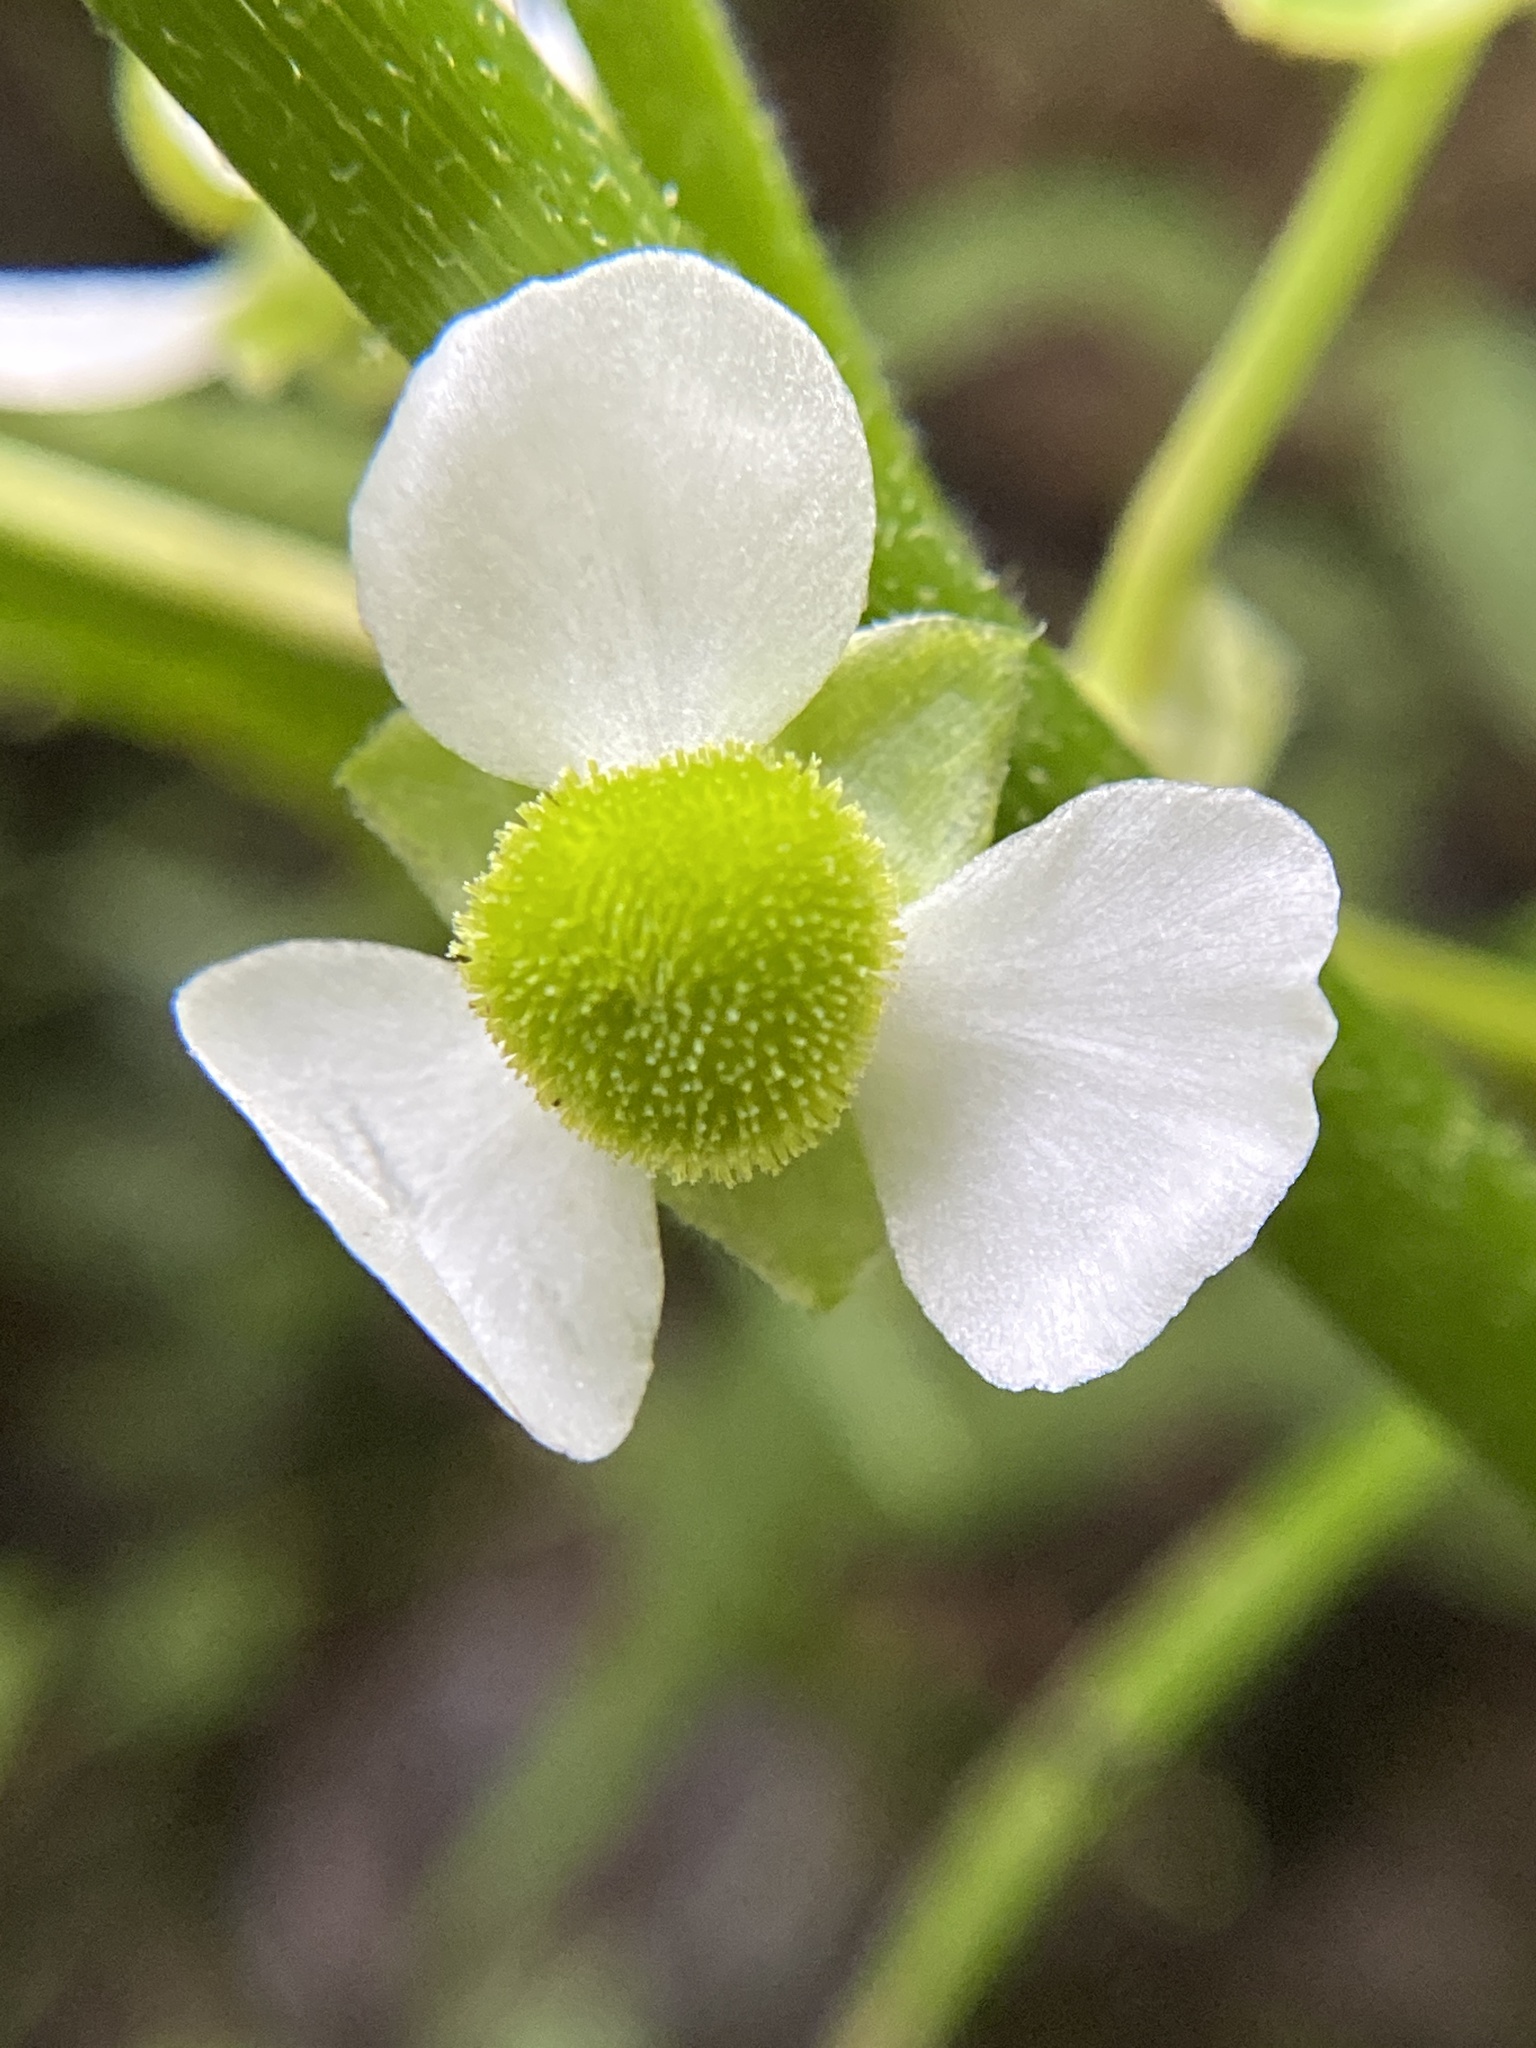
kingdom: Plantae
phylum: Tracheophyta
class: Liliopsida
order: Alismatales
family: Alismataceae
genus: Sagittaria
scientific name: Sagittaria latifolia
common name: Duck-potato
